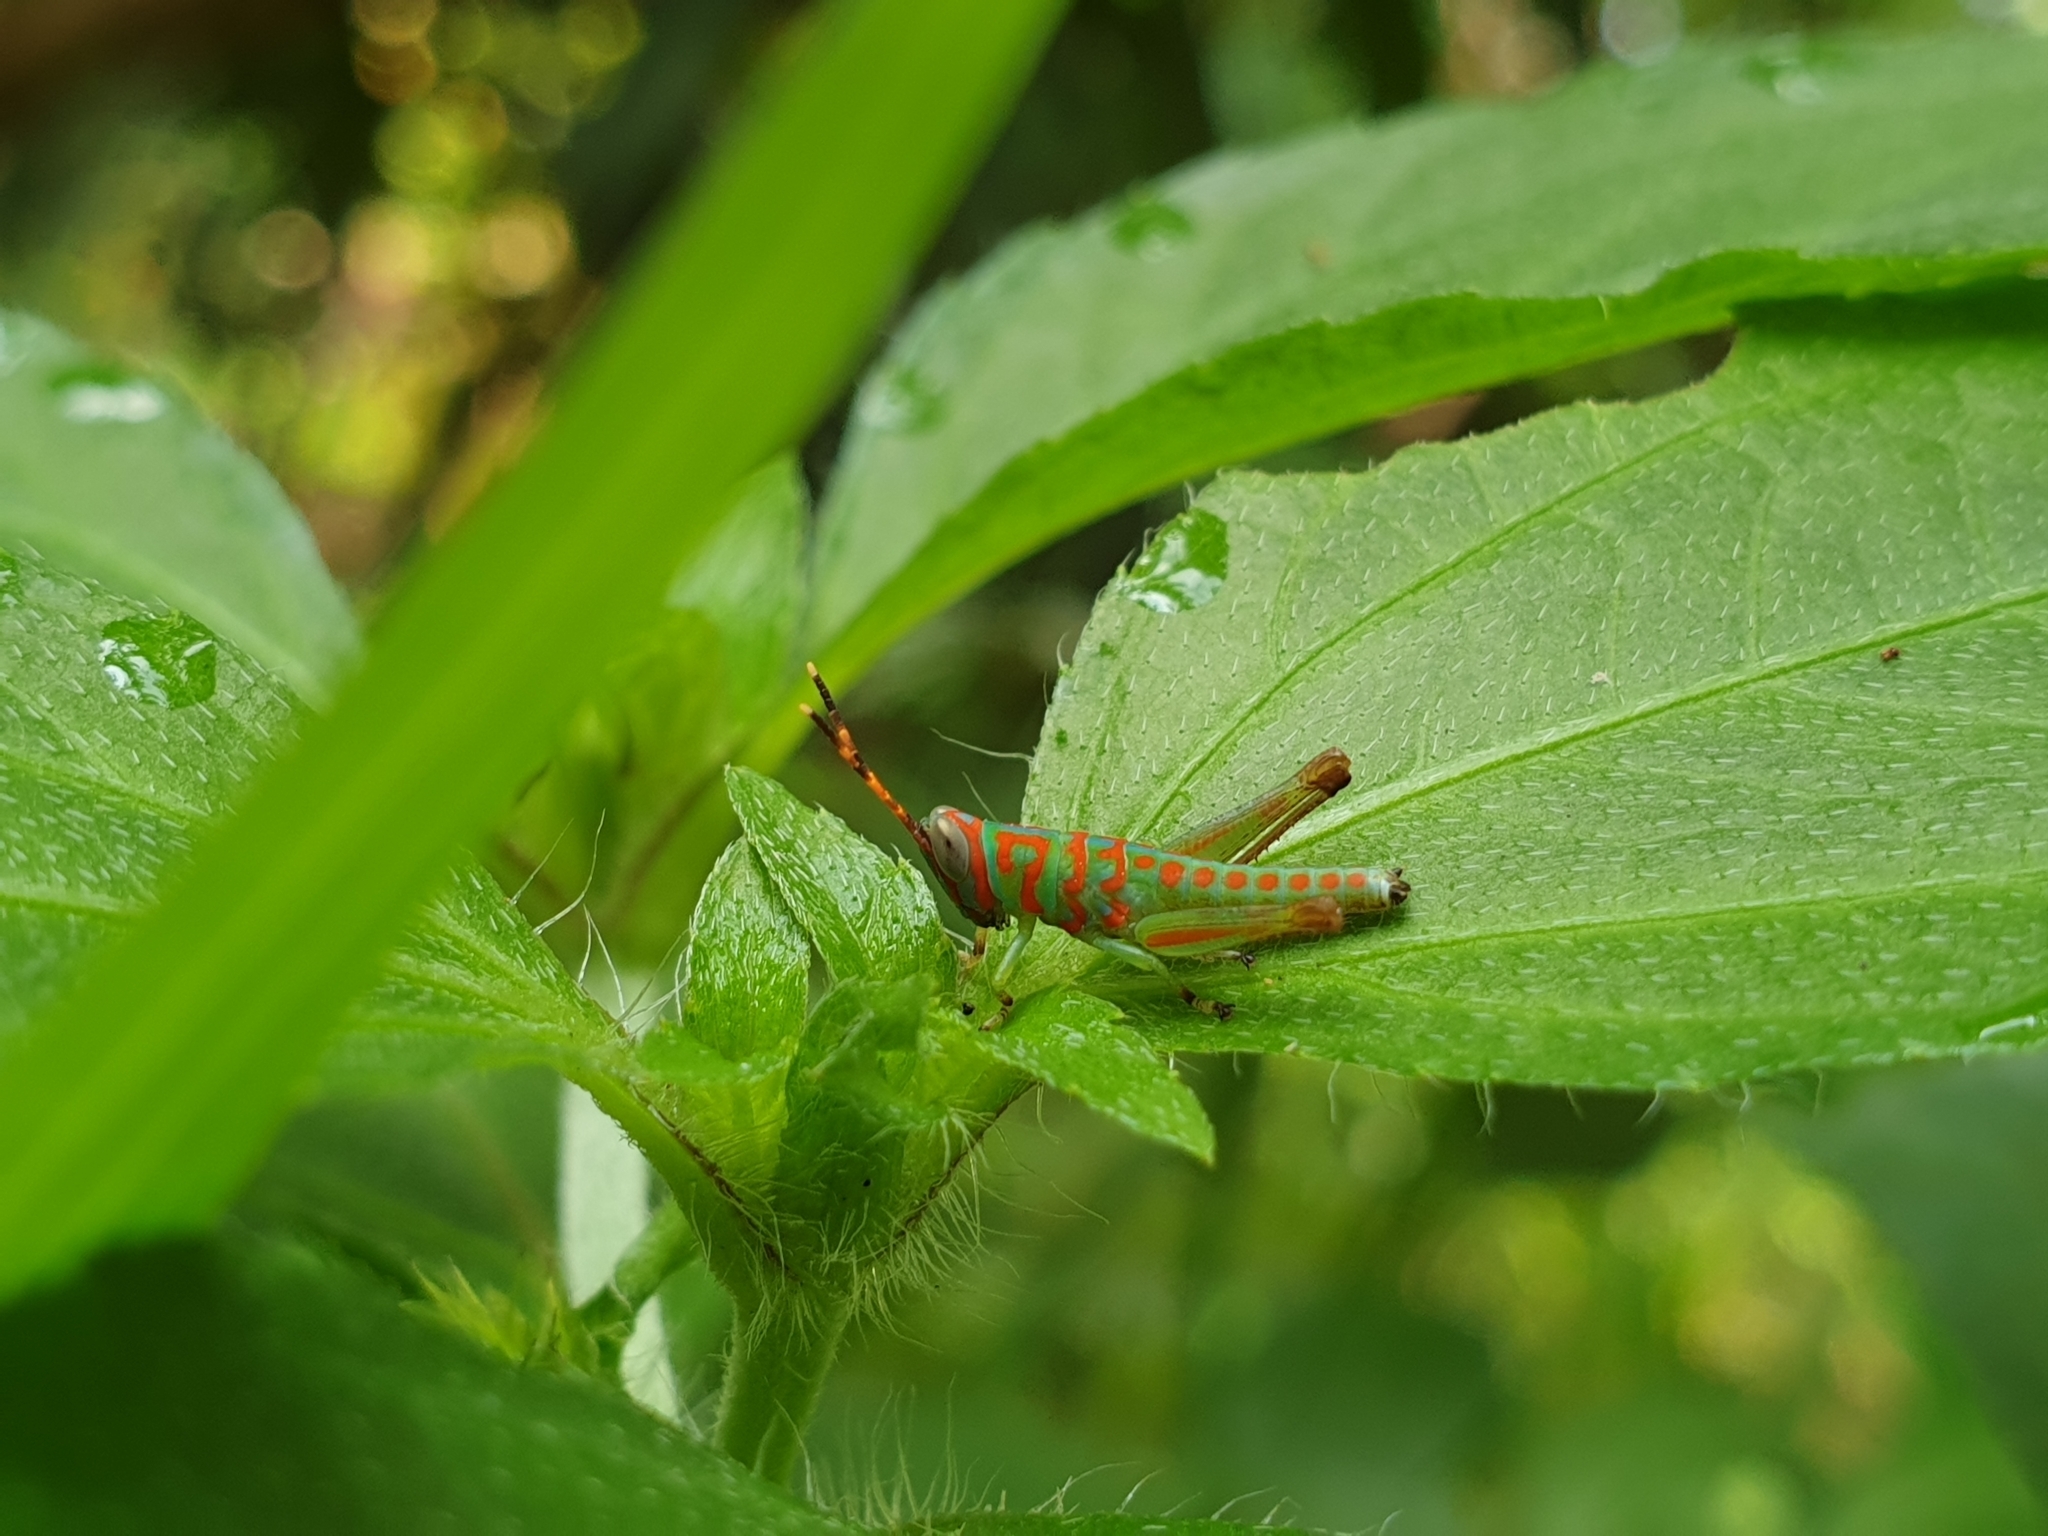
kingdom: Animalia
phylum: Arthropoda
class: Insecta
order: Orthoptera
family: Acrididae
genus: Pirithoicus
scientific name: Pirithoicus ophthalmicus
